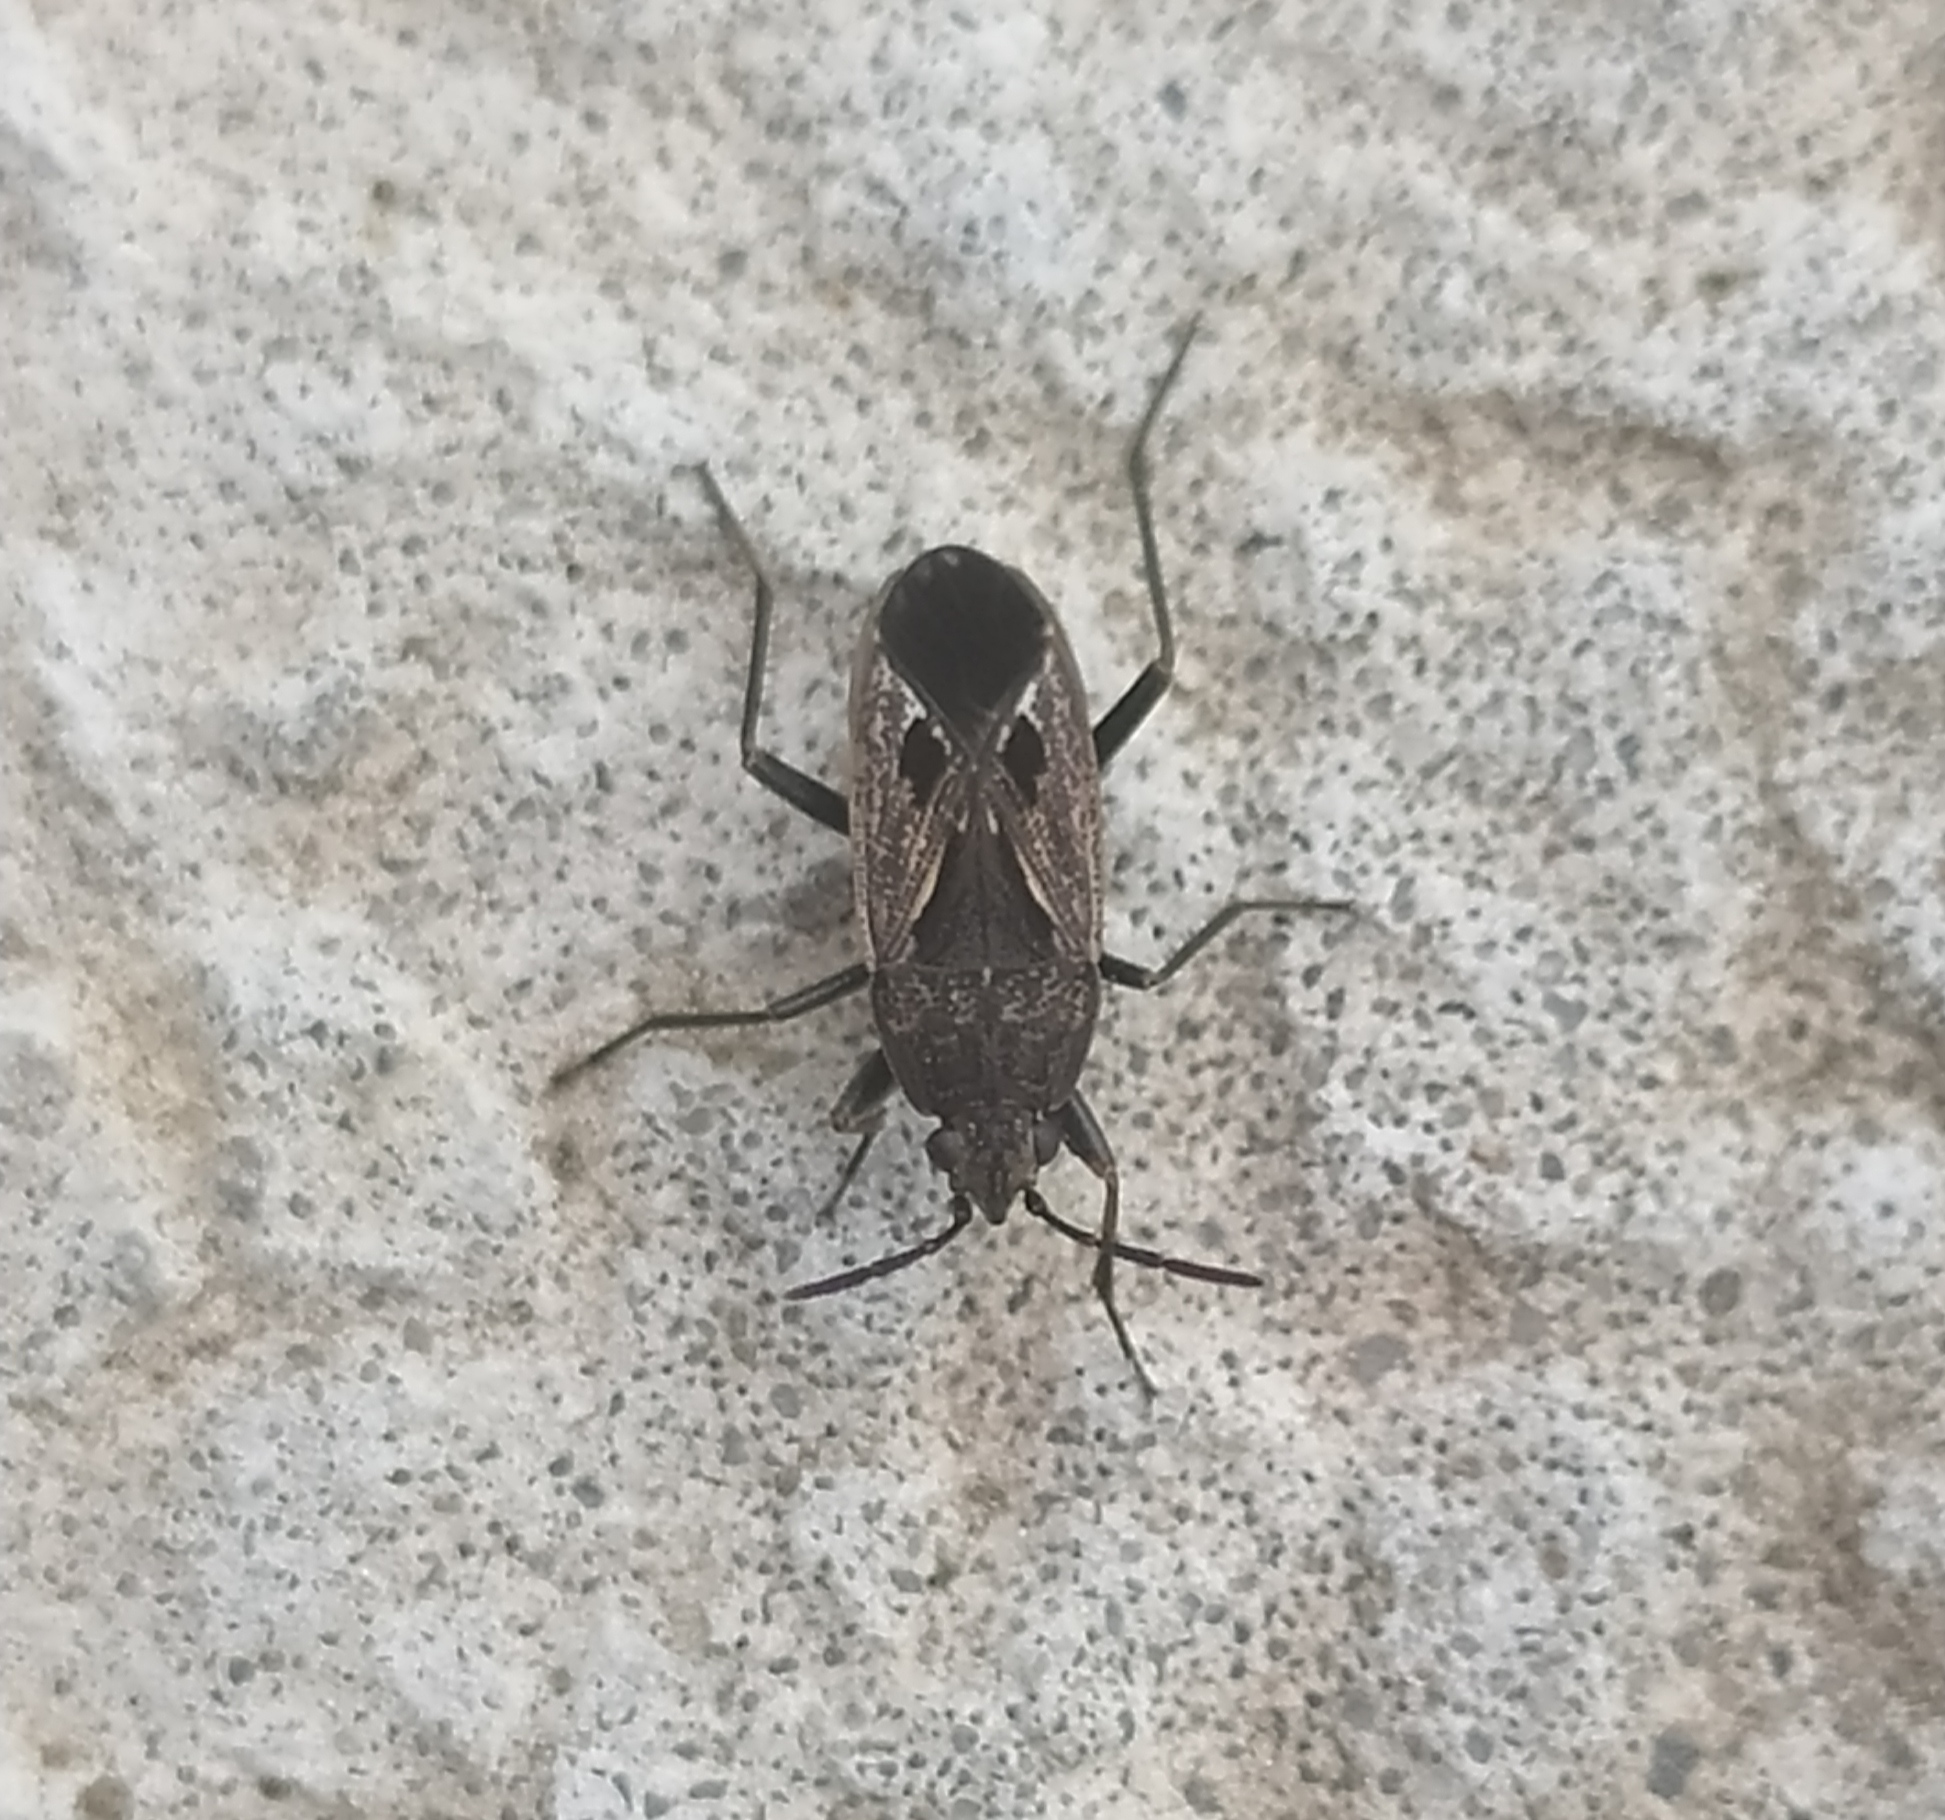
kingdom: Animalia
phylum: Arthropoda
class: Insecta
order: Hemiptera
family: Rhyparochromidae
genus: Rhyparochromus
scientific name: Rhyparochromus pini
